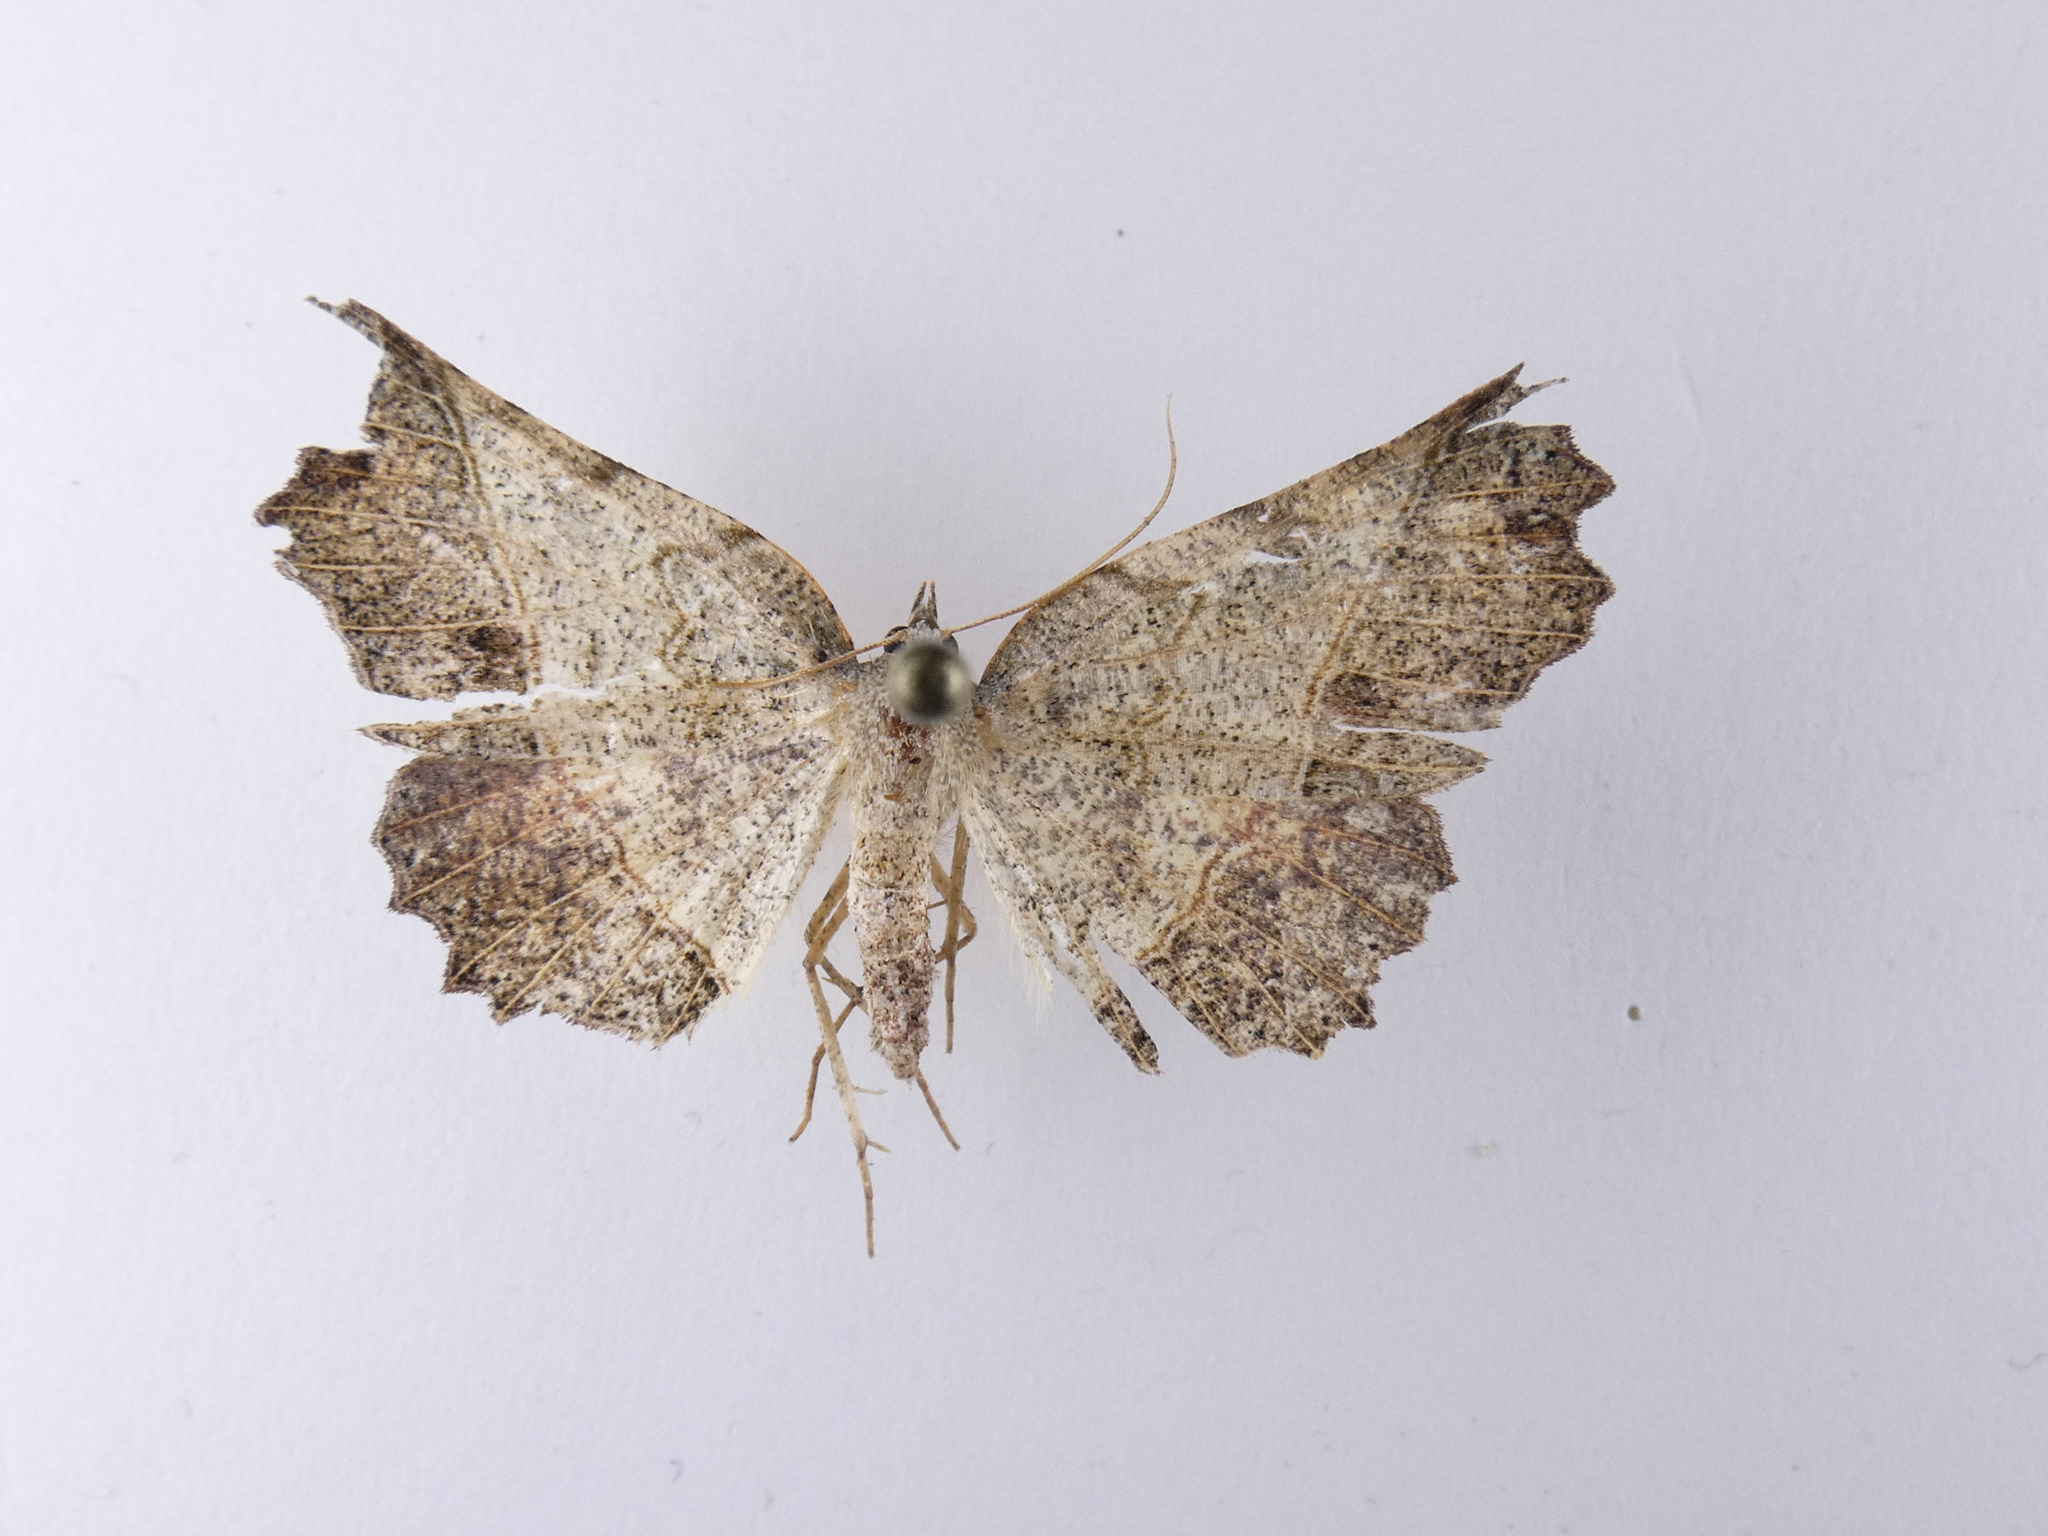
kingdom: Animalia
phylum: Arthropoda
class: Insecta
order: Lepidoptera
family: Geometridae
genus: Ischalis
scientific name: Ischalis gallaria
